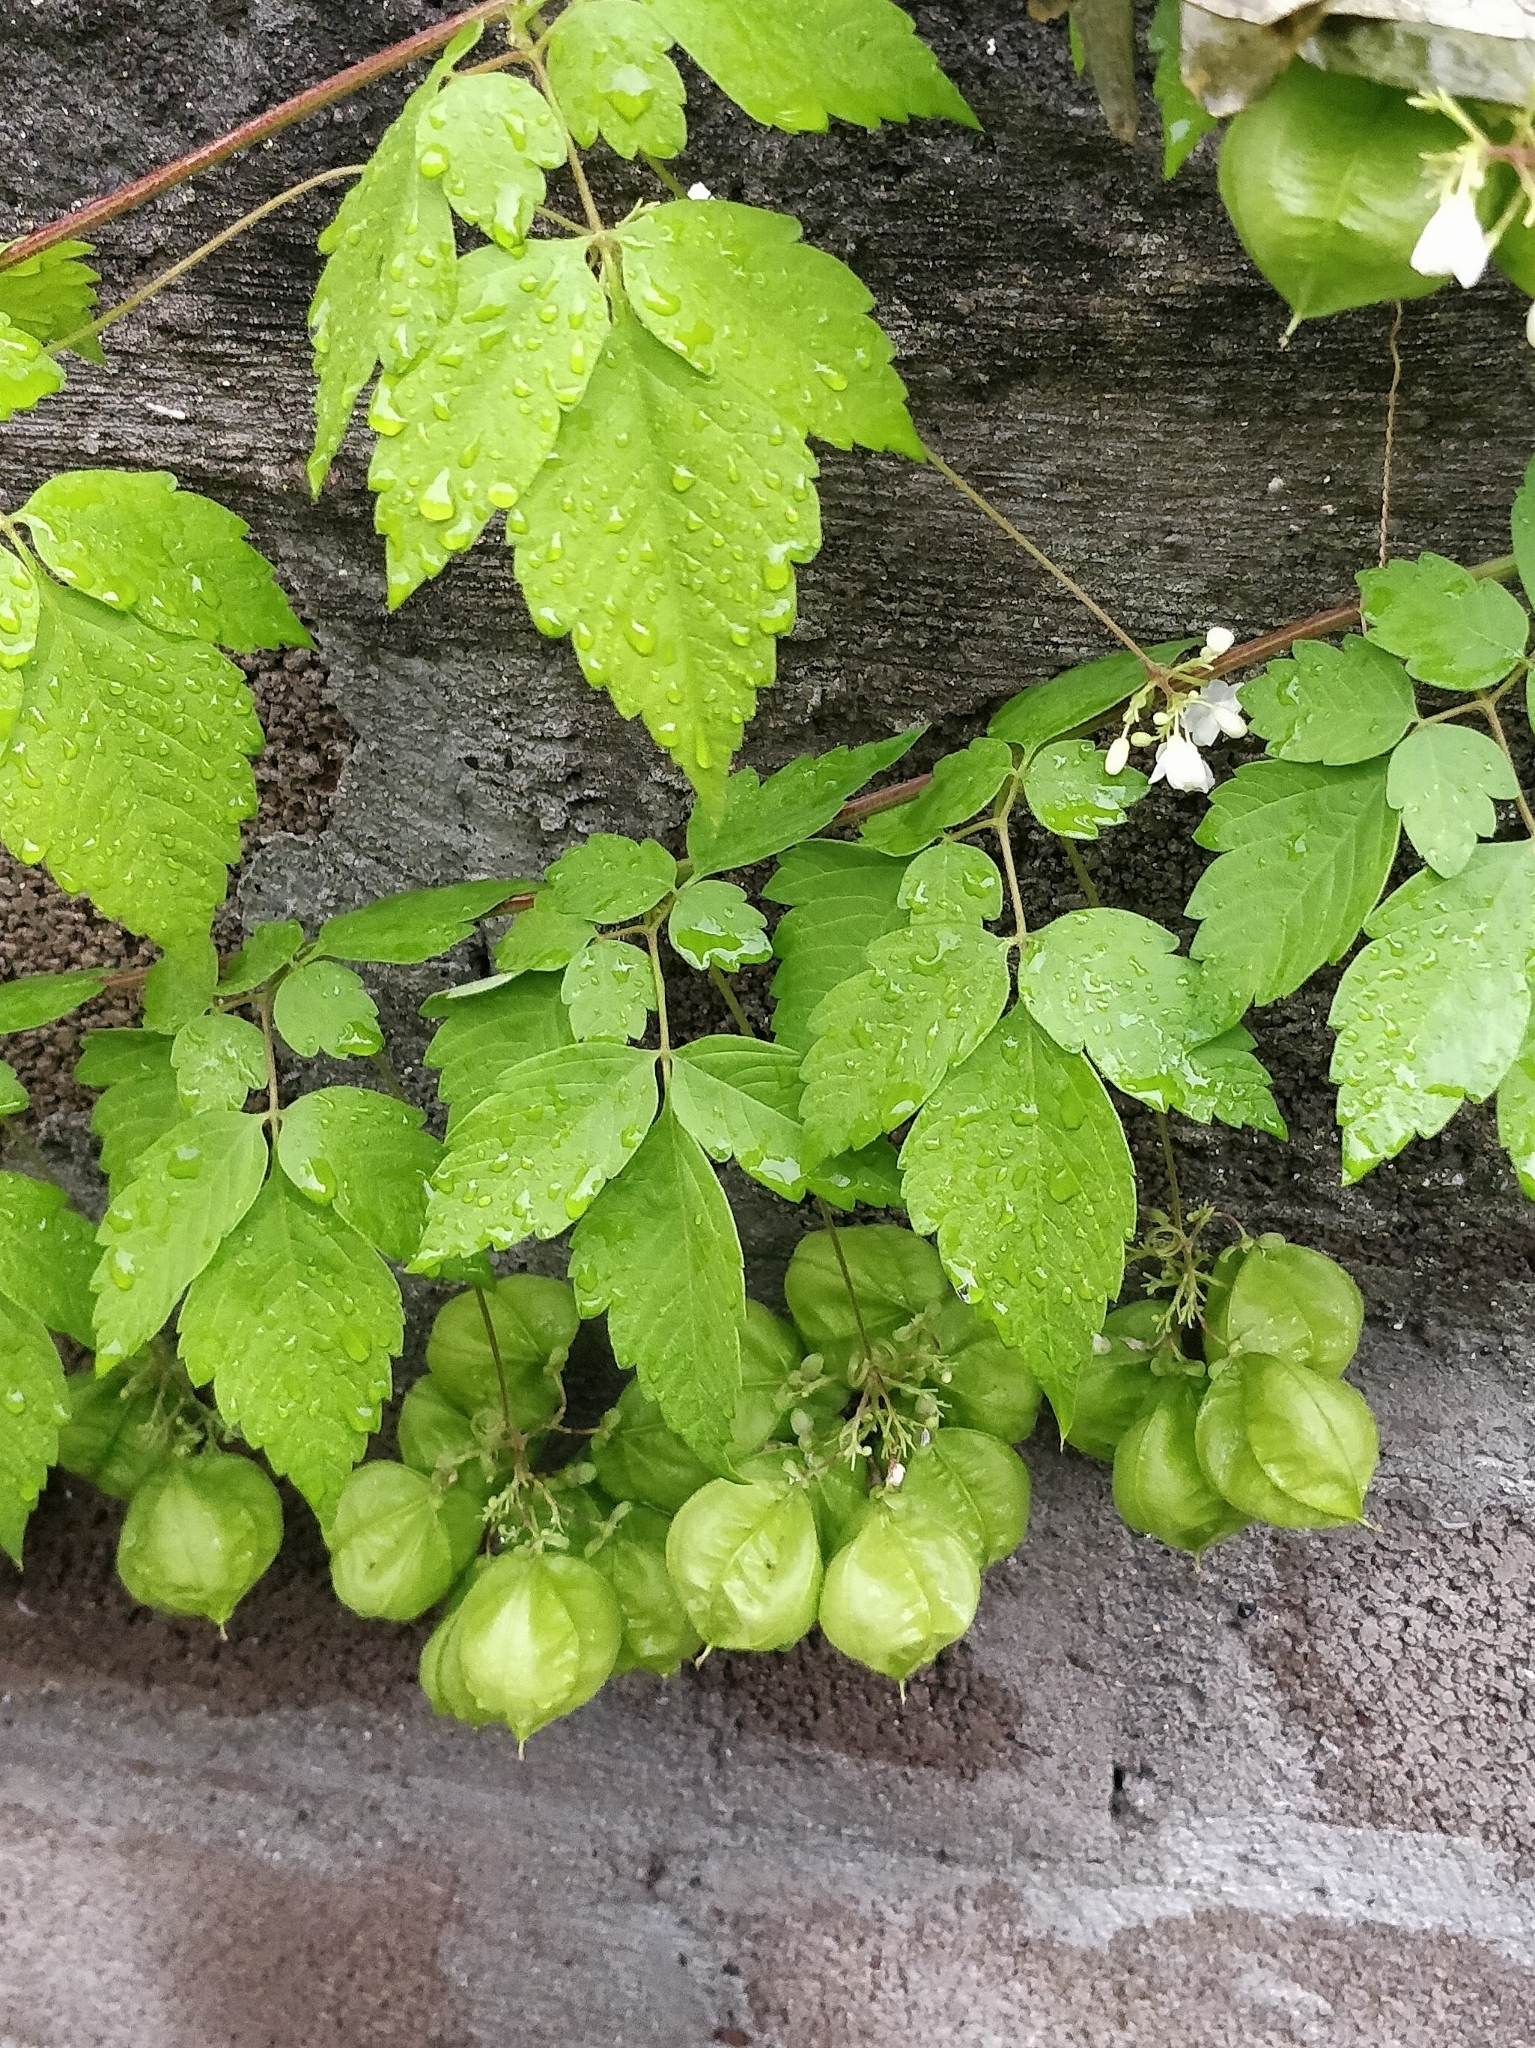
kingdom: Plantae
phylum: Tracheophyta
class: Magnoliopsida
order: Sapindales
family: Sapindaceae
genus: Cardiospermum
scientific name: Cardiospermum grandiflorum
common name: Balloon vine
